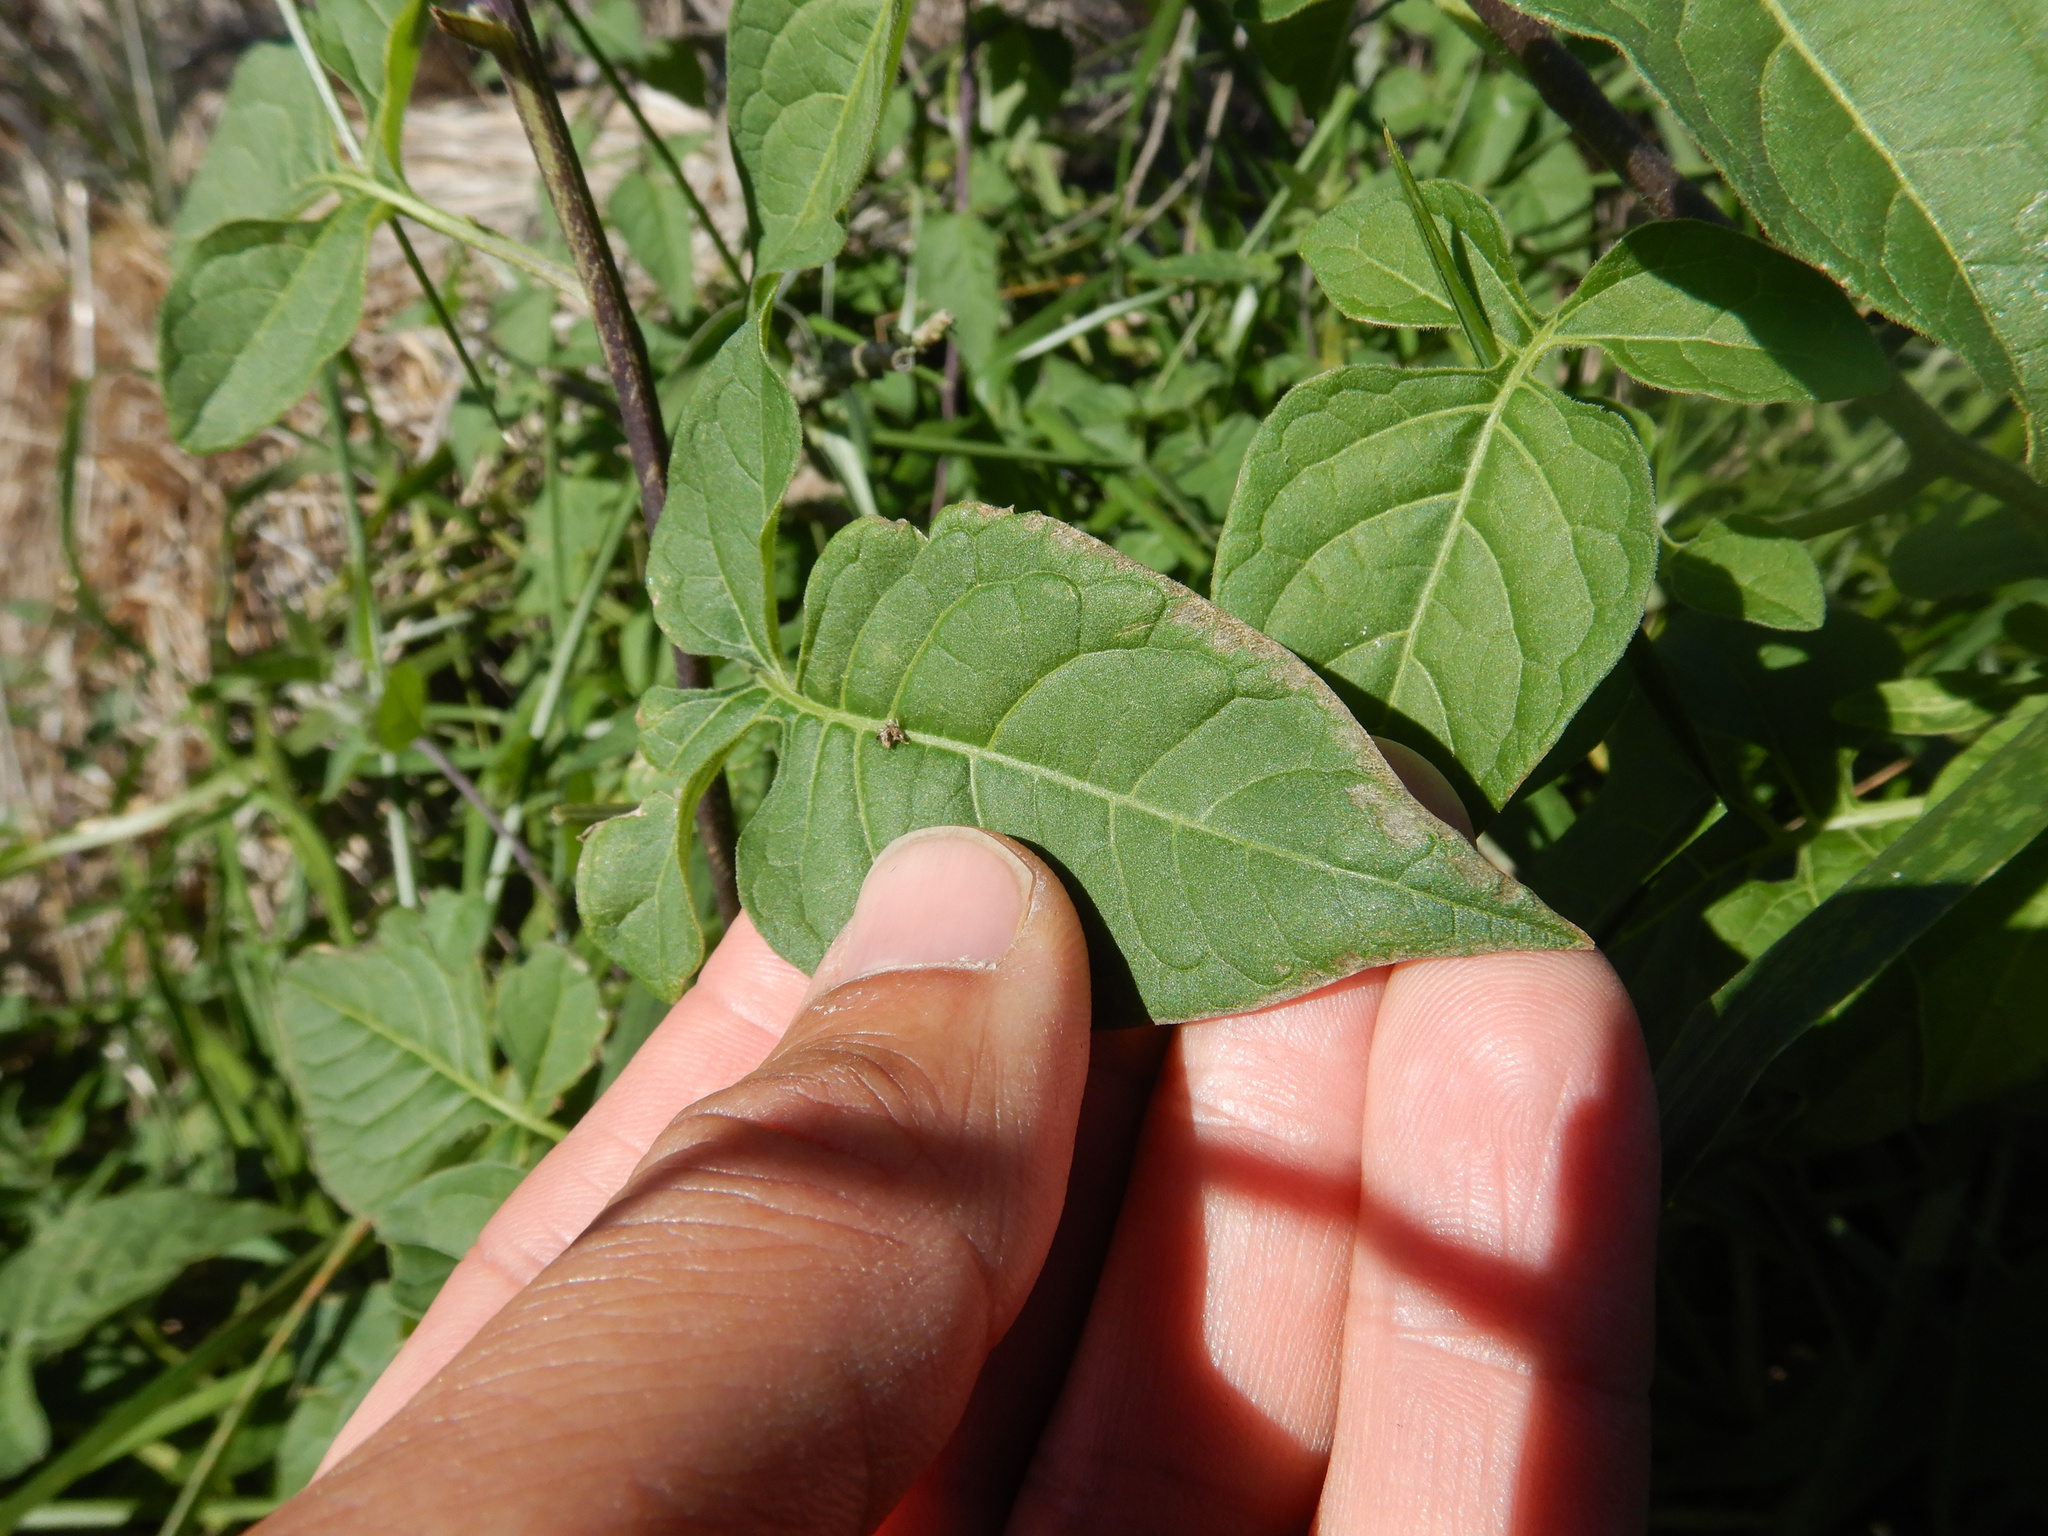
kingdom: Plantae
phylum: Tracheophyta
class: Magnoliopsida
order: Solanales
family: Solanaceae
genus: Solanum
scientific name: Solanum dulcamara
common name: Climbing nightshade
